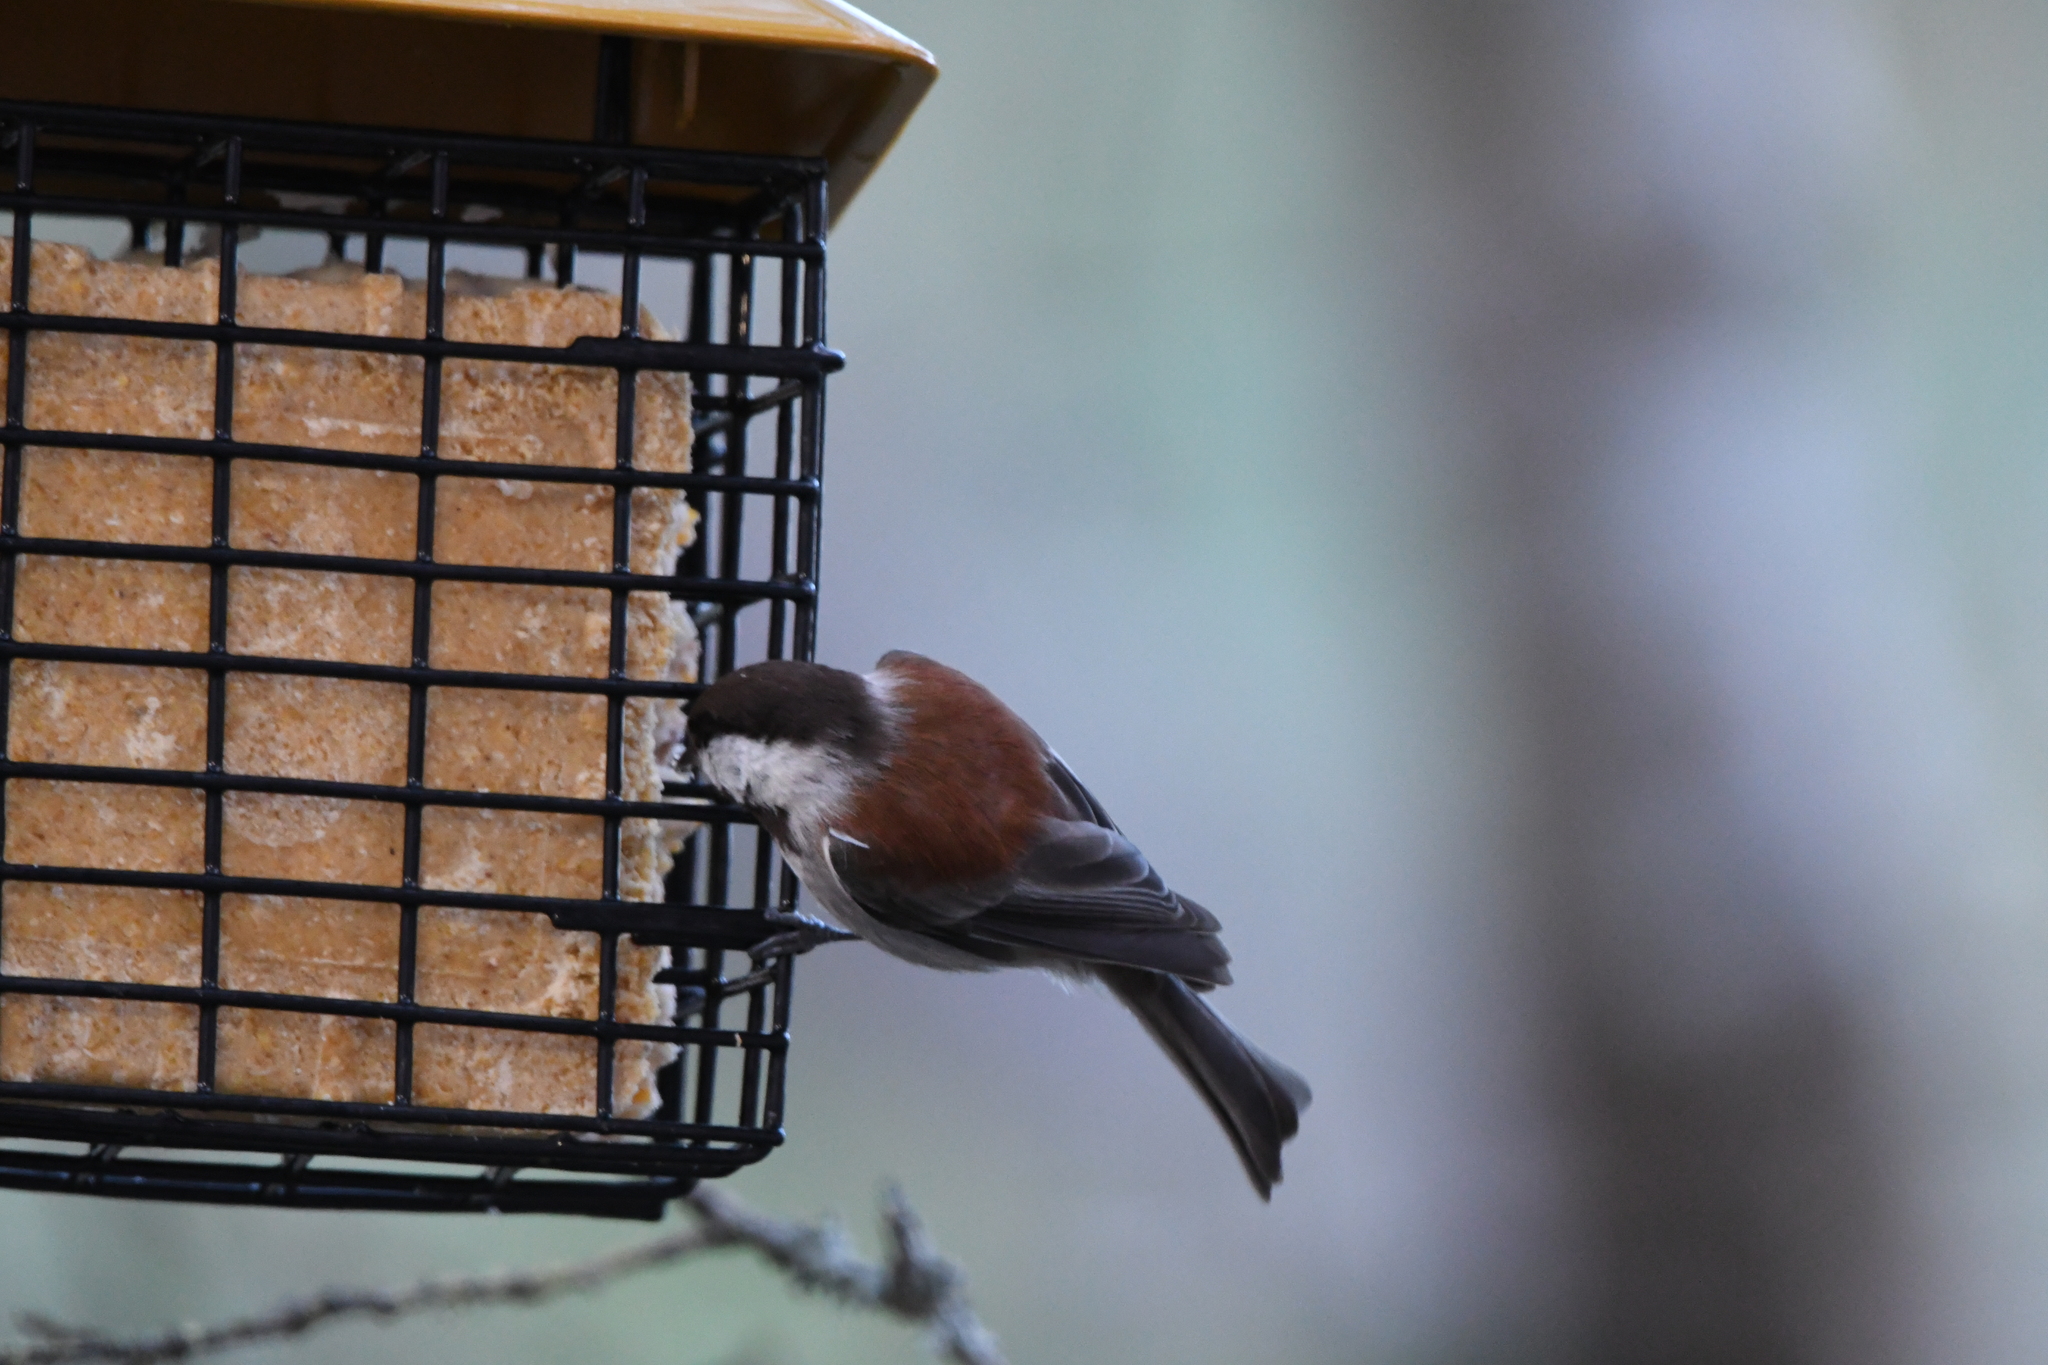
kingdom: Animalia
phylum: Chordata
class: Aves
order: Passeriformes
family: Paridae
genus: Poecile
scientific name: Poecile rufescens
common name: Chestnut-backed chickadee
